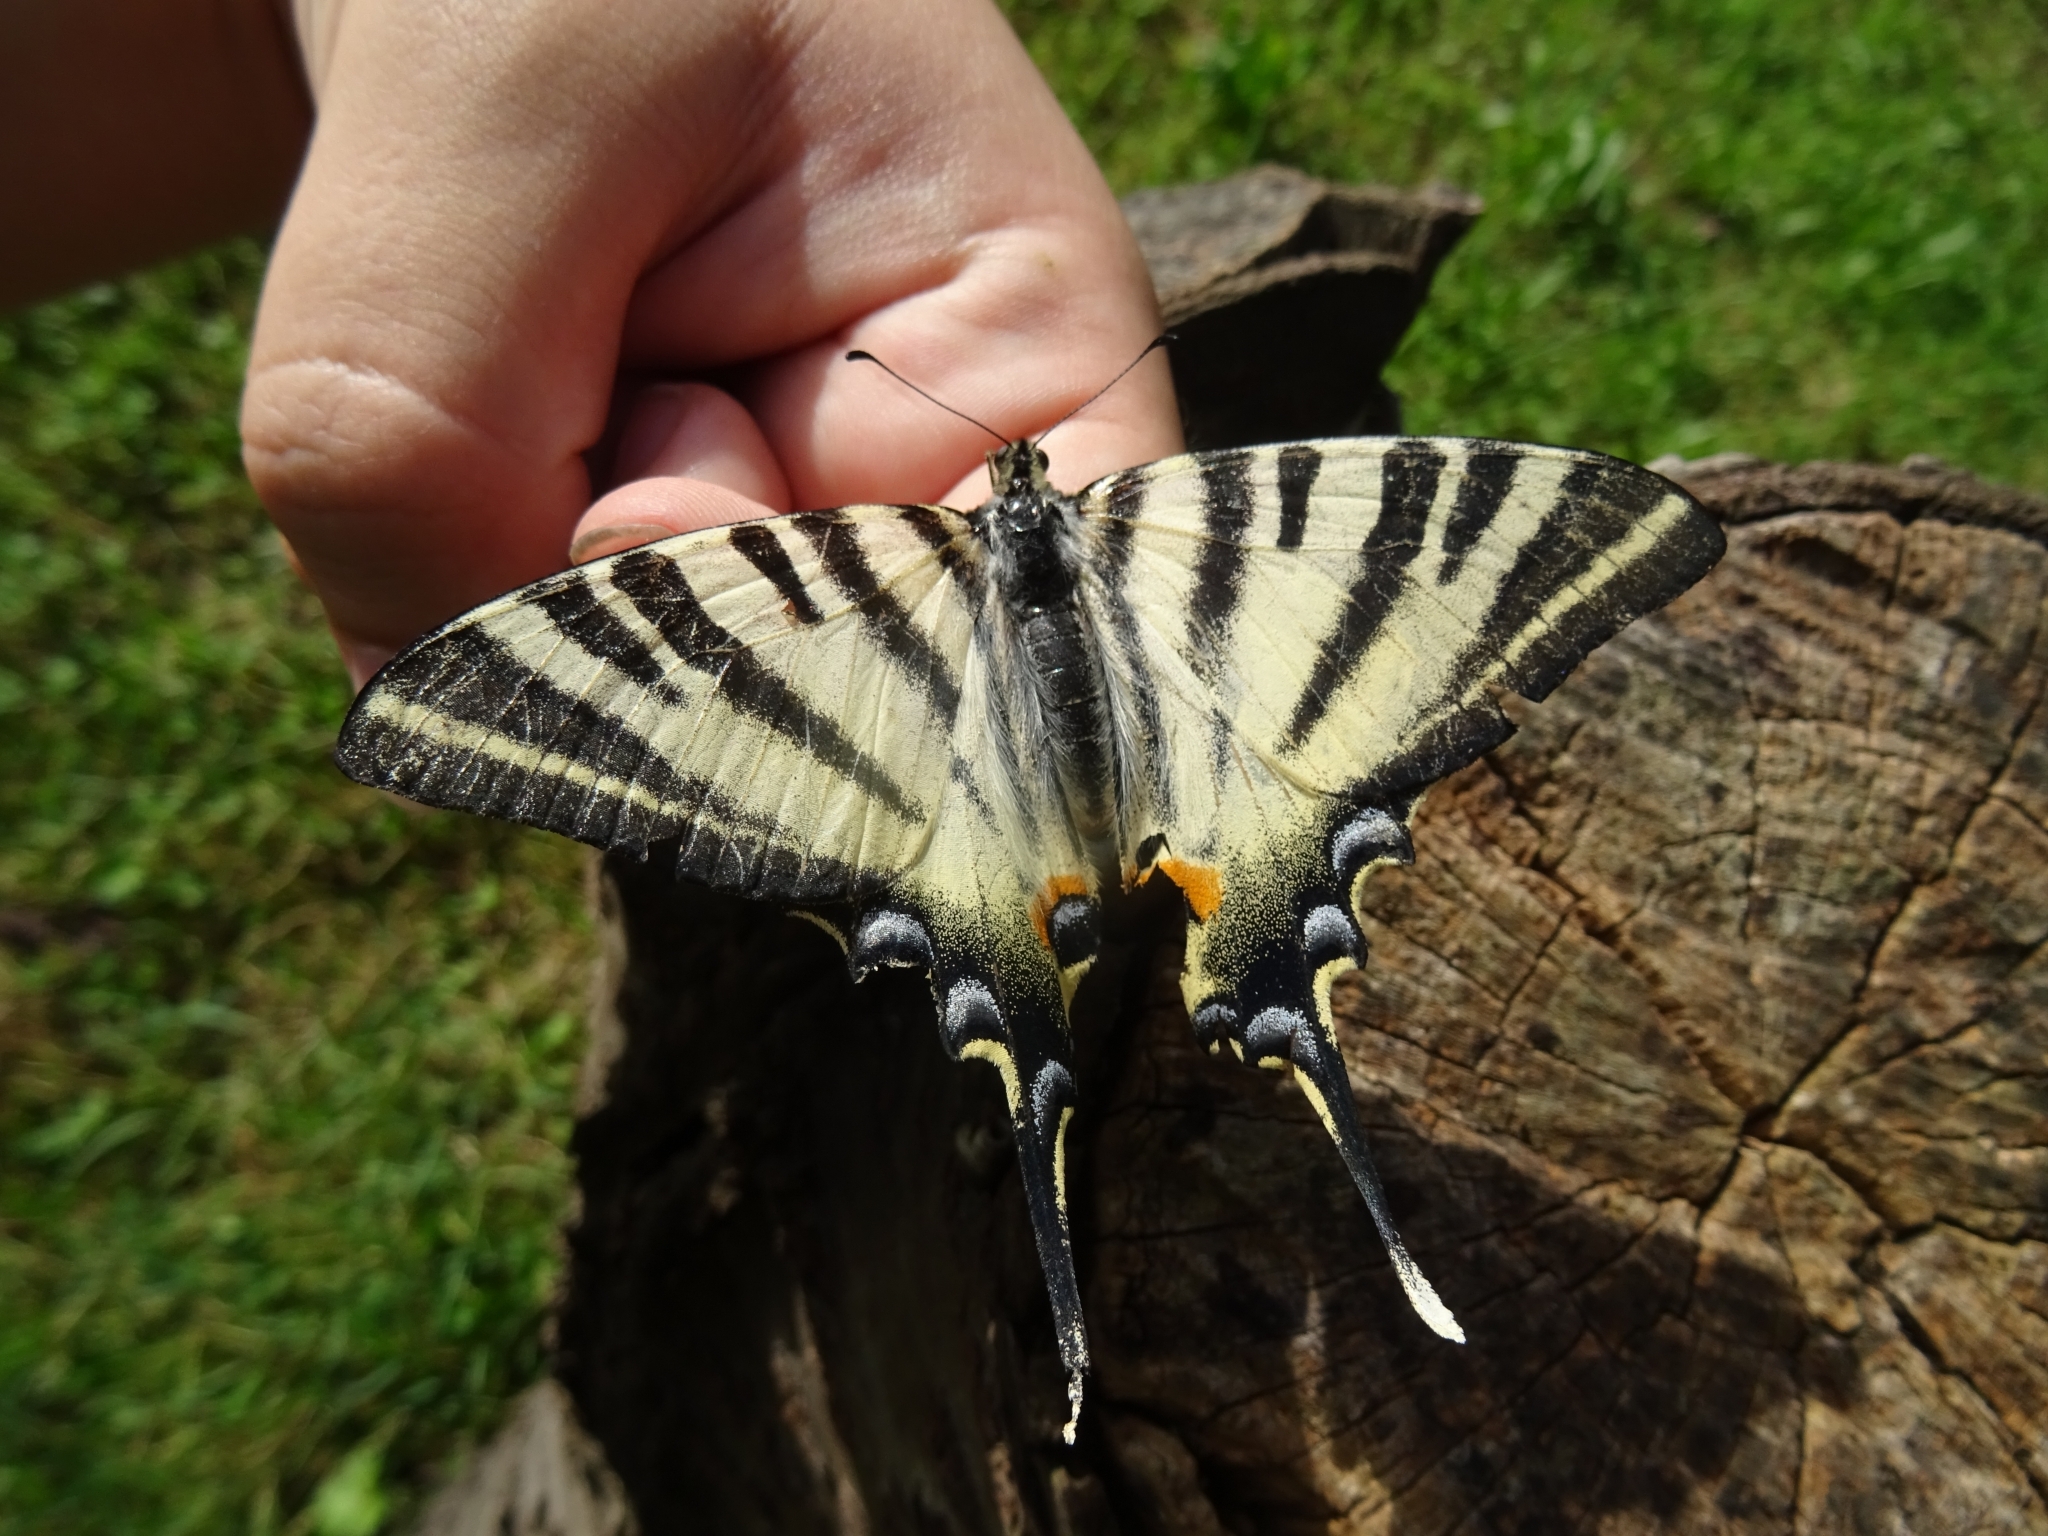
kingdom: Animalia
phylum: Arthropoda
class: Insecta
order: Lepidoptera
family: Papilionidae
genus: Iphiclides
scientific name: Iphiclides feisthamelii
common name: Iberian scarce swallowtail
